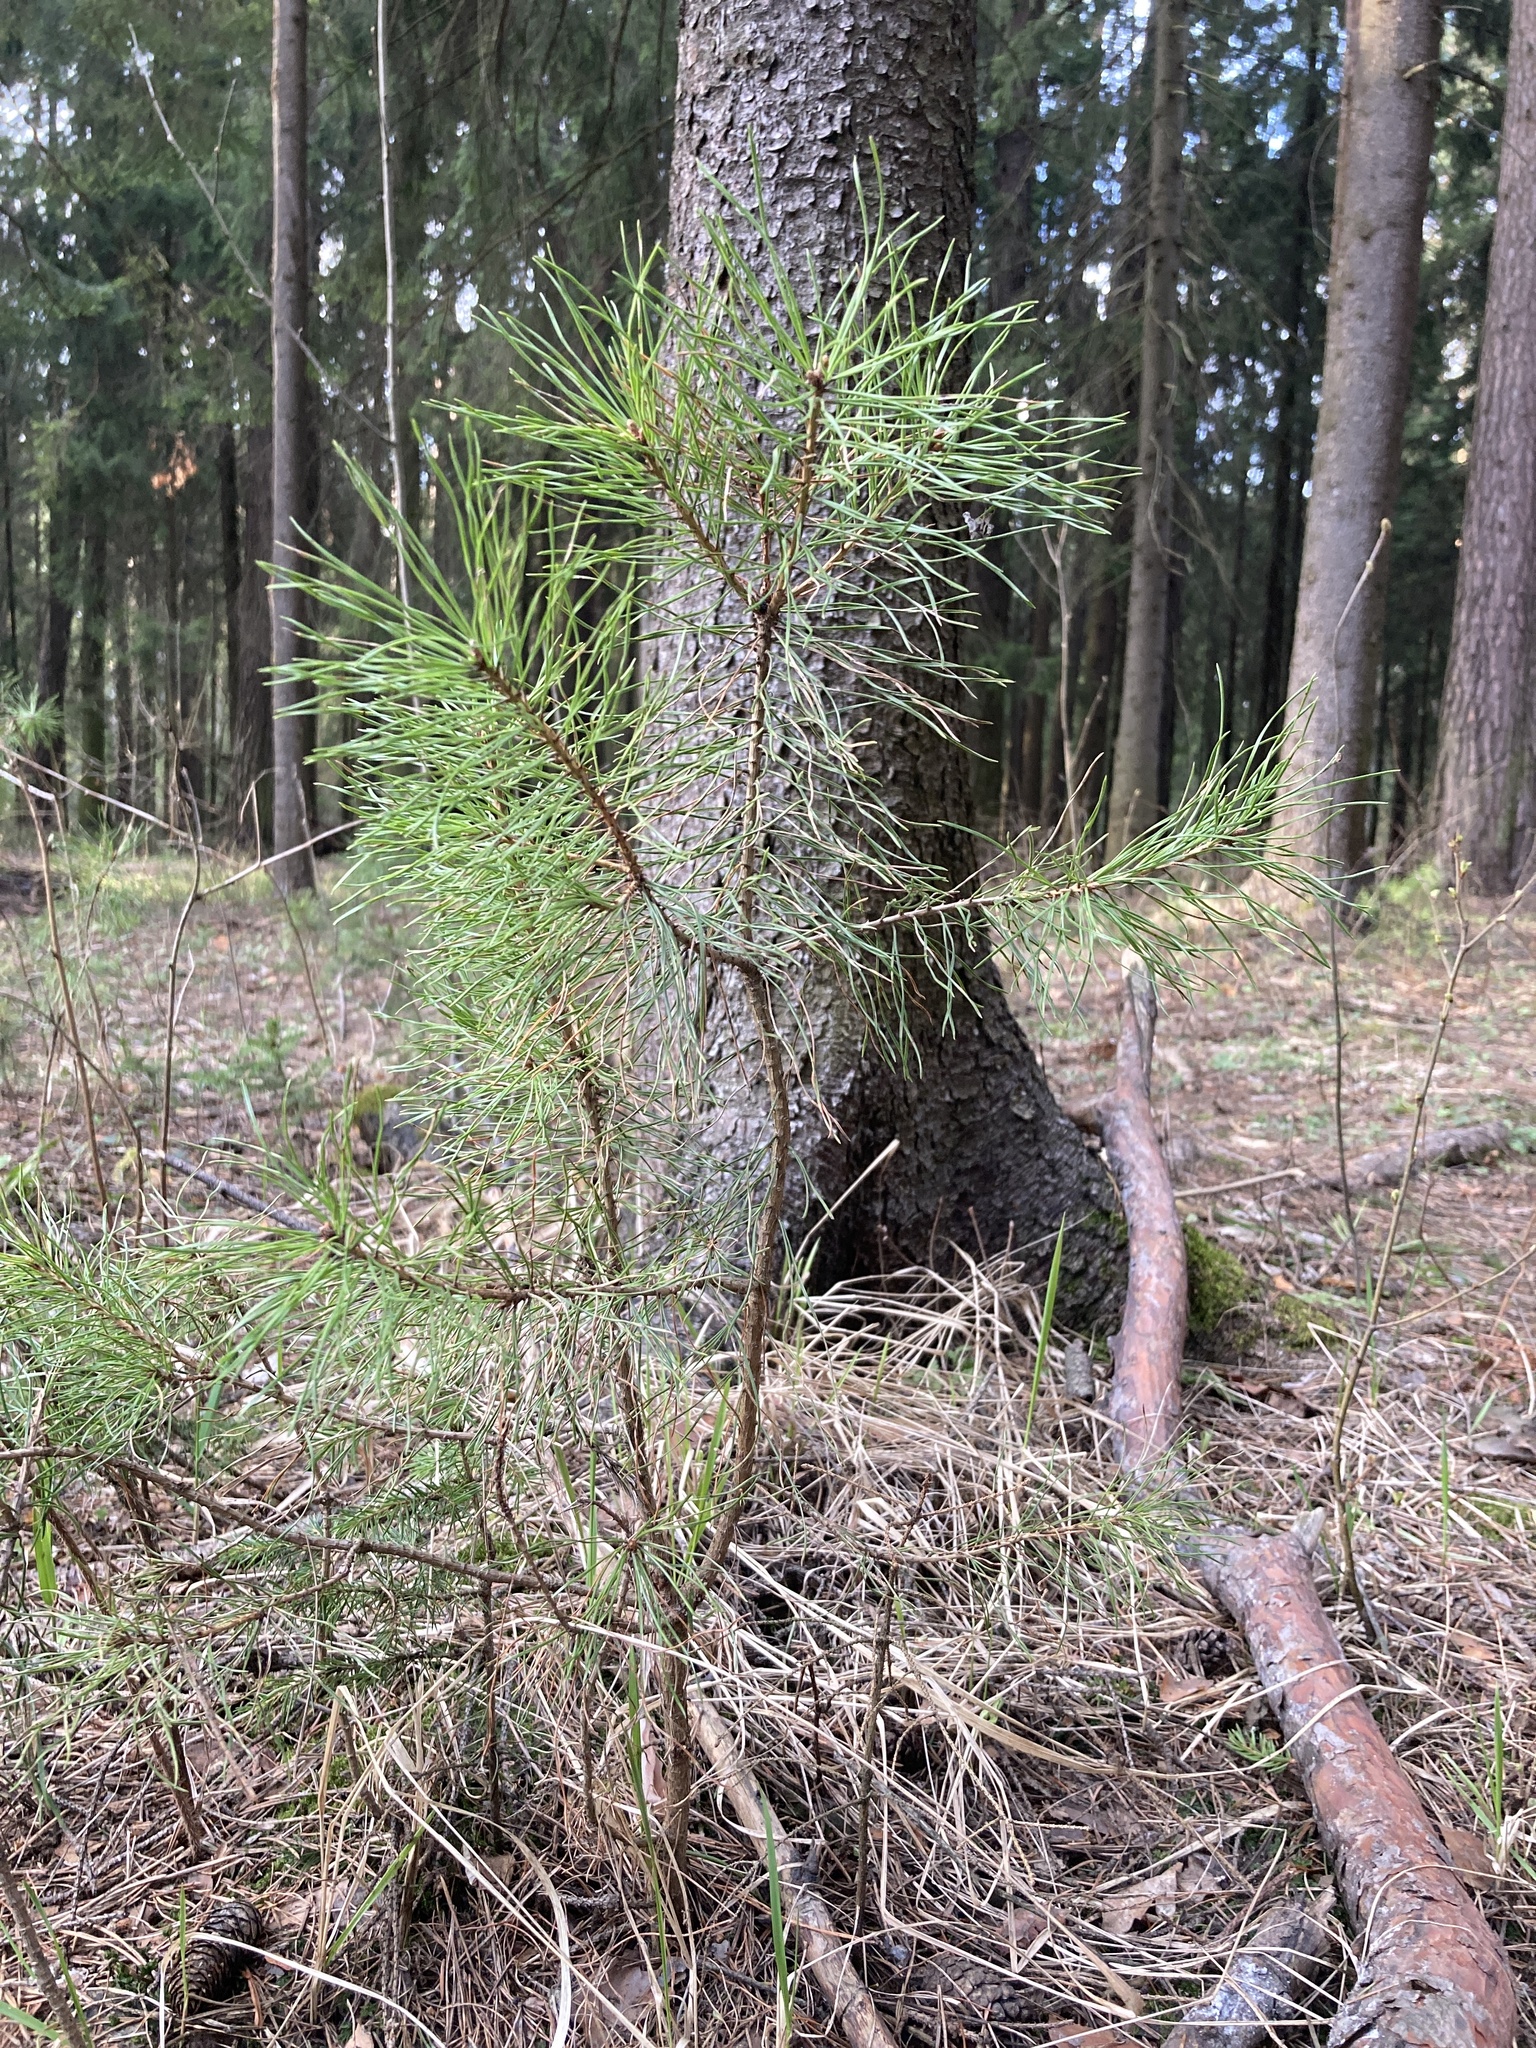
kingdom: Plantae
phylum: Tracheophyta
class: Pinopsida
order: Pinales
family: Pinaceae
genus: Pinus
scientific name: Pinus sylvestris
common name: Scots pine
